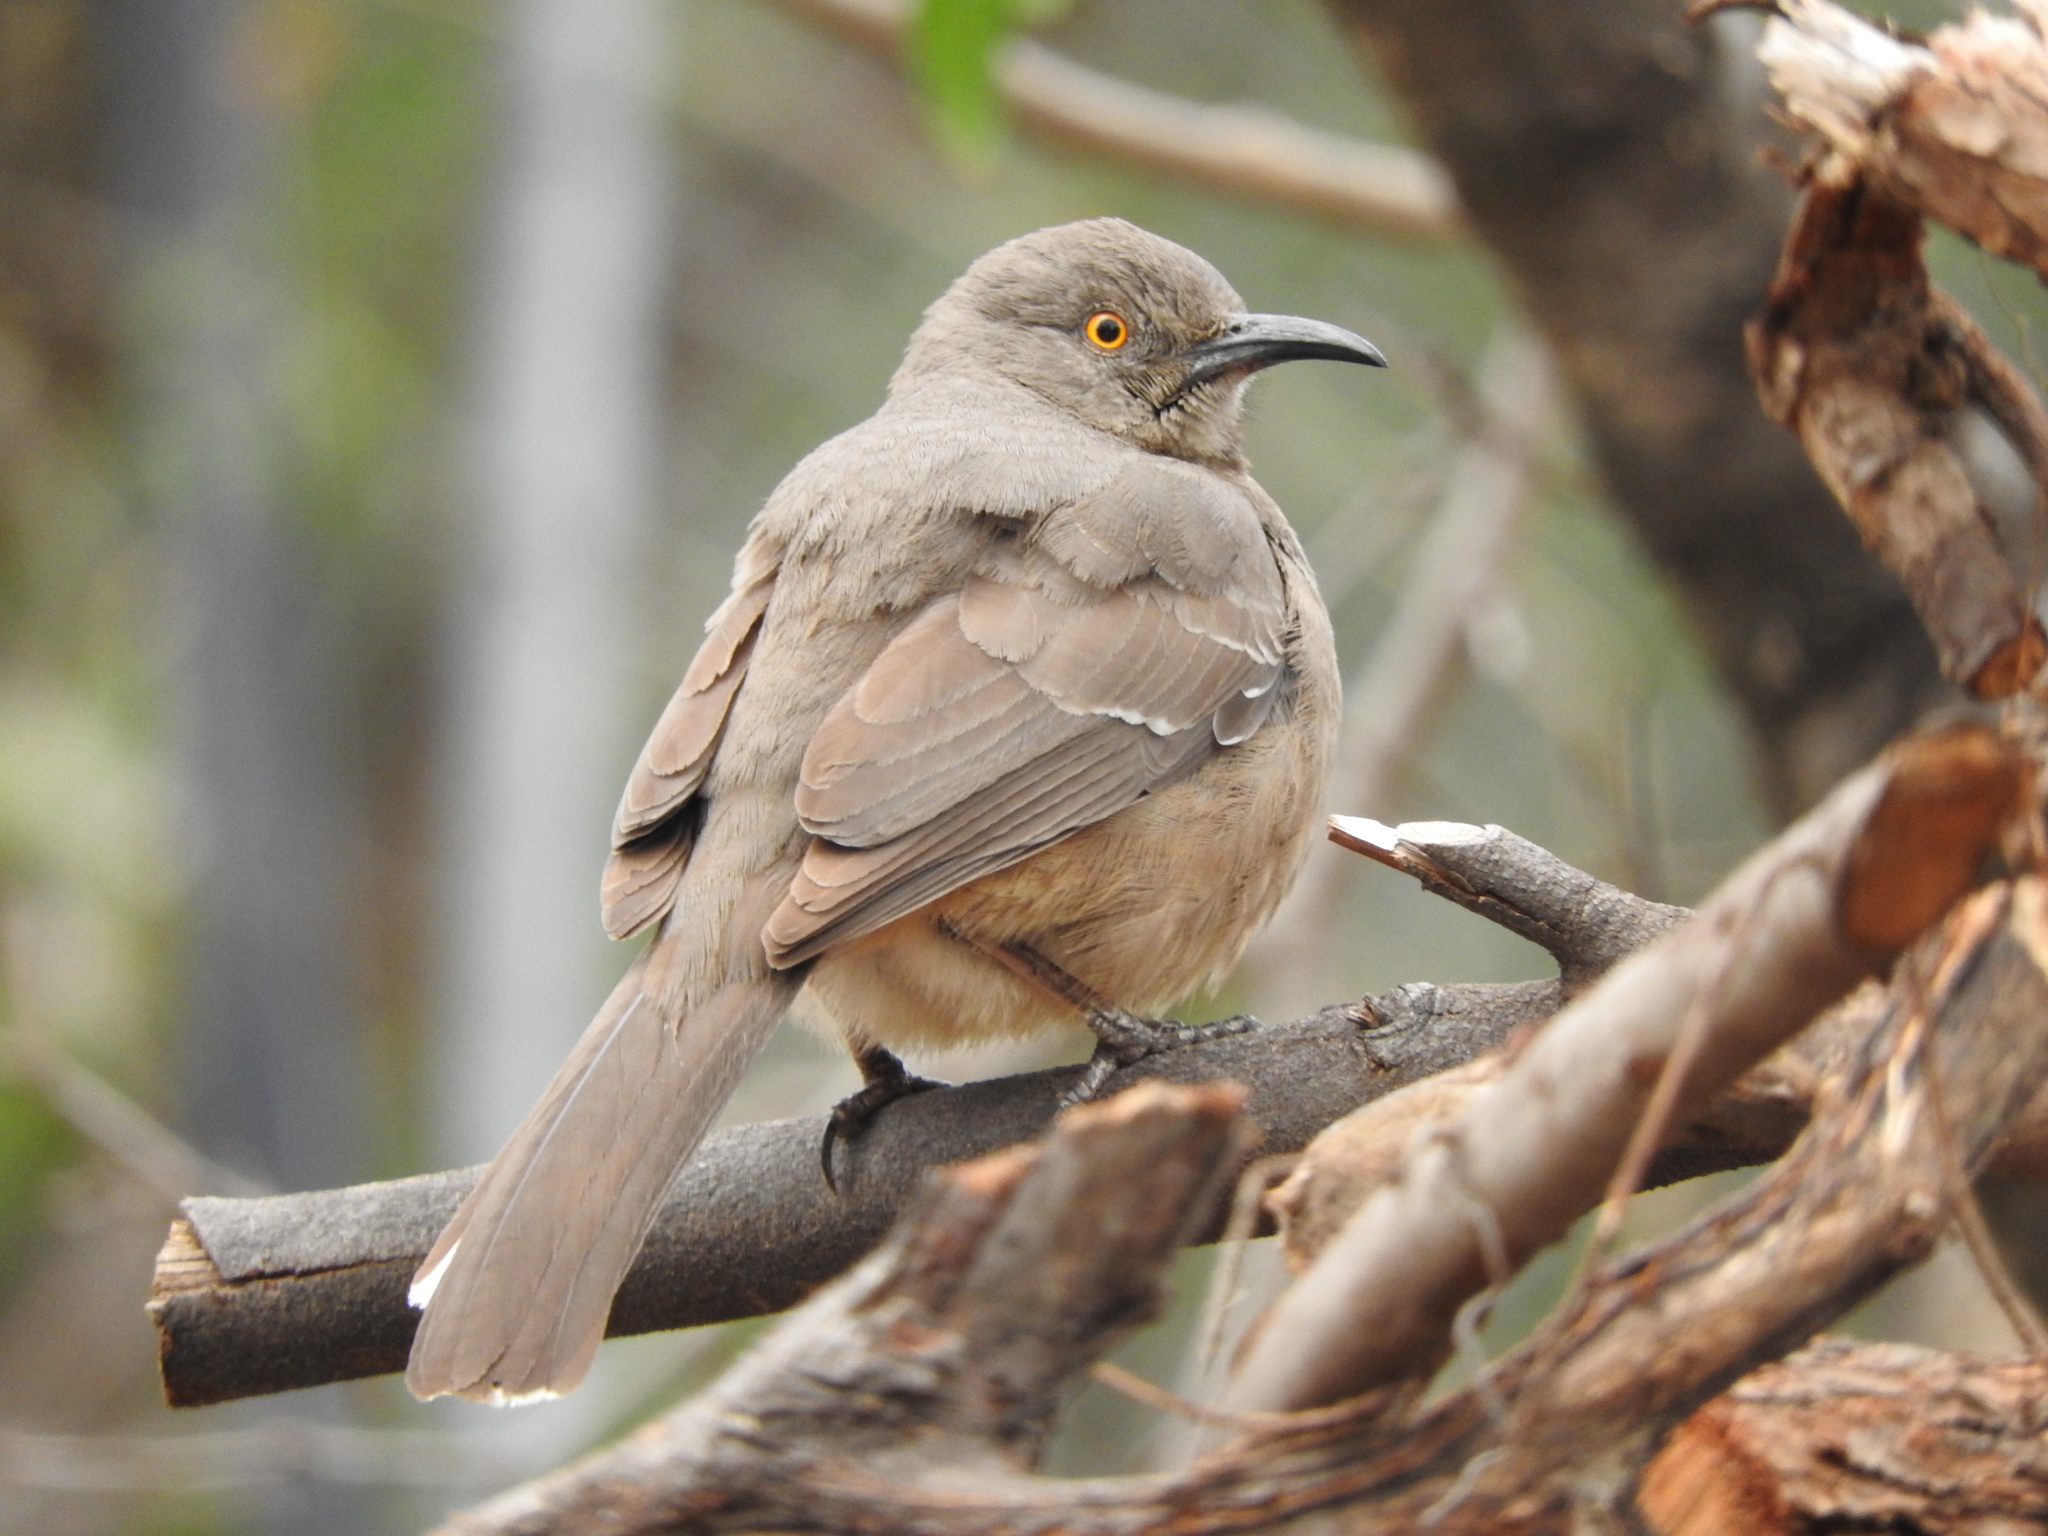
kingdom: Animalia
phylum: Chordata
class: Aves
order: Passeriformes
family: Mimidae
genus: Toxostoma
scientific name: Toxostoma curvirostre
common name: Curve-billed thrasher
